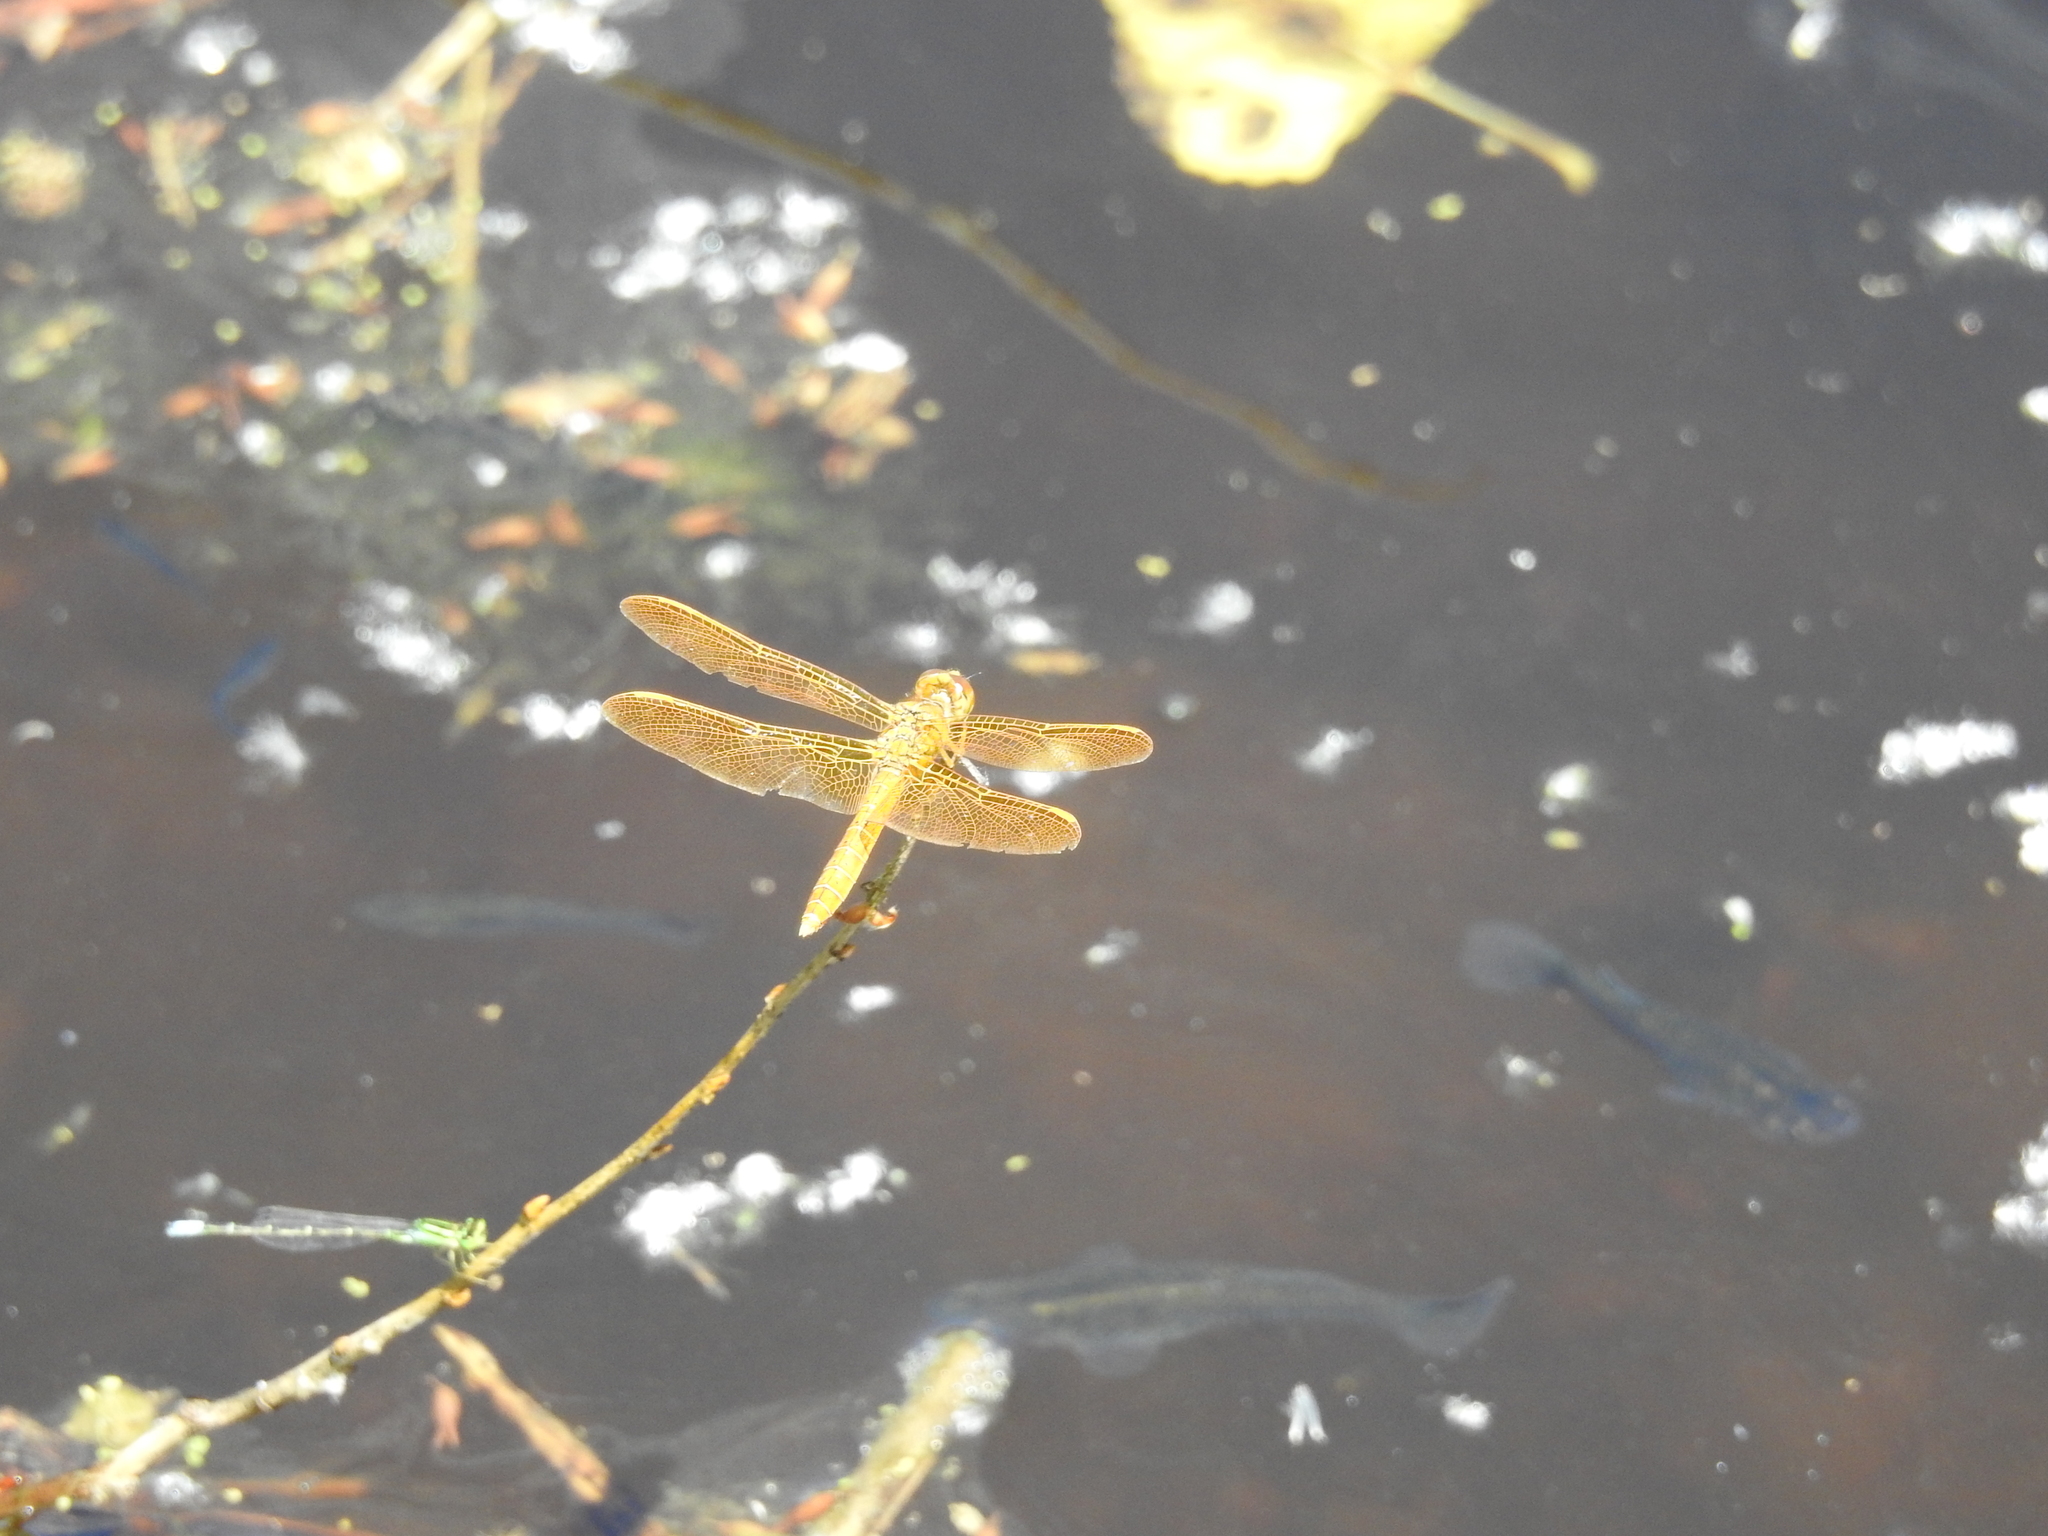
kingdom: Animalia
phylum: Arthropoda
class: Insecta
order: Odonata
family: Libellulidae
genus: Perithemis
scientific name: Perithemis intensa
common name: Mexican amberwing
